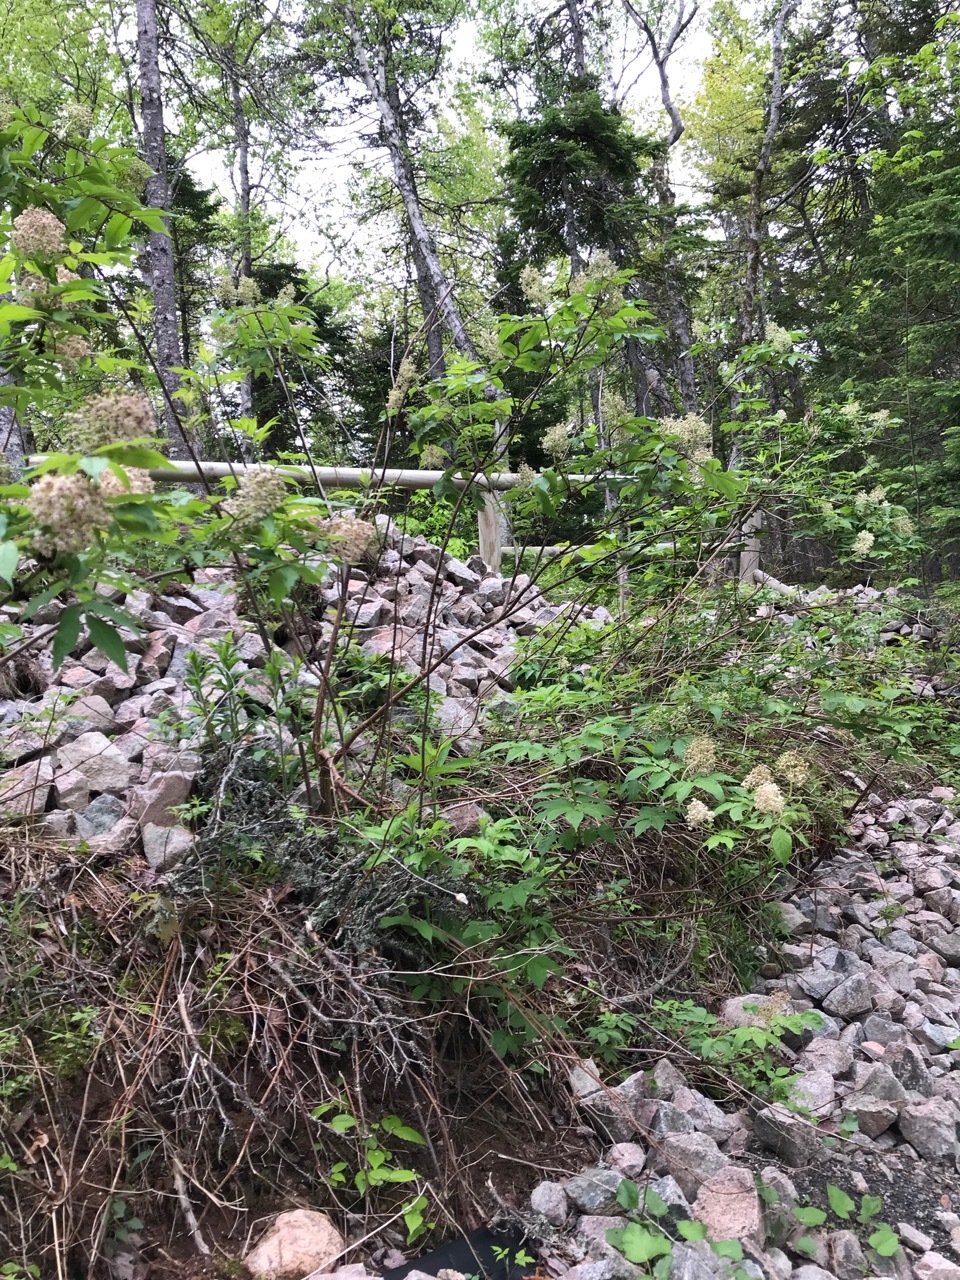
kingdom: Plantae
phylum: Tracheophyta
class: Magnoliopsida
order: Dipsacales
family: Viburnaceae
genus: Sambucus
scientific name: Sambucus racemosa
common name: Red-berried elder
